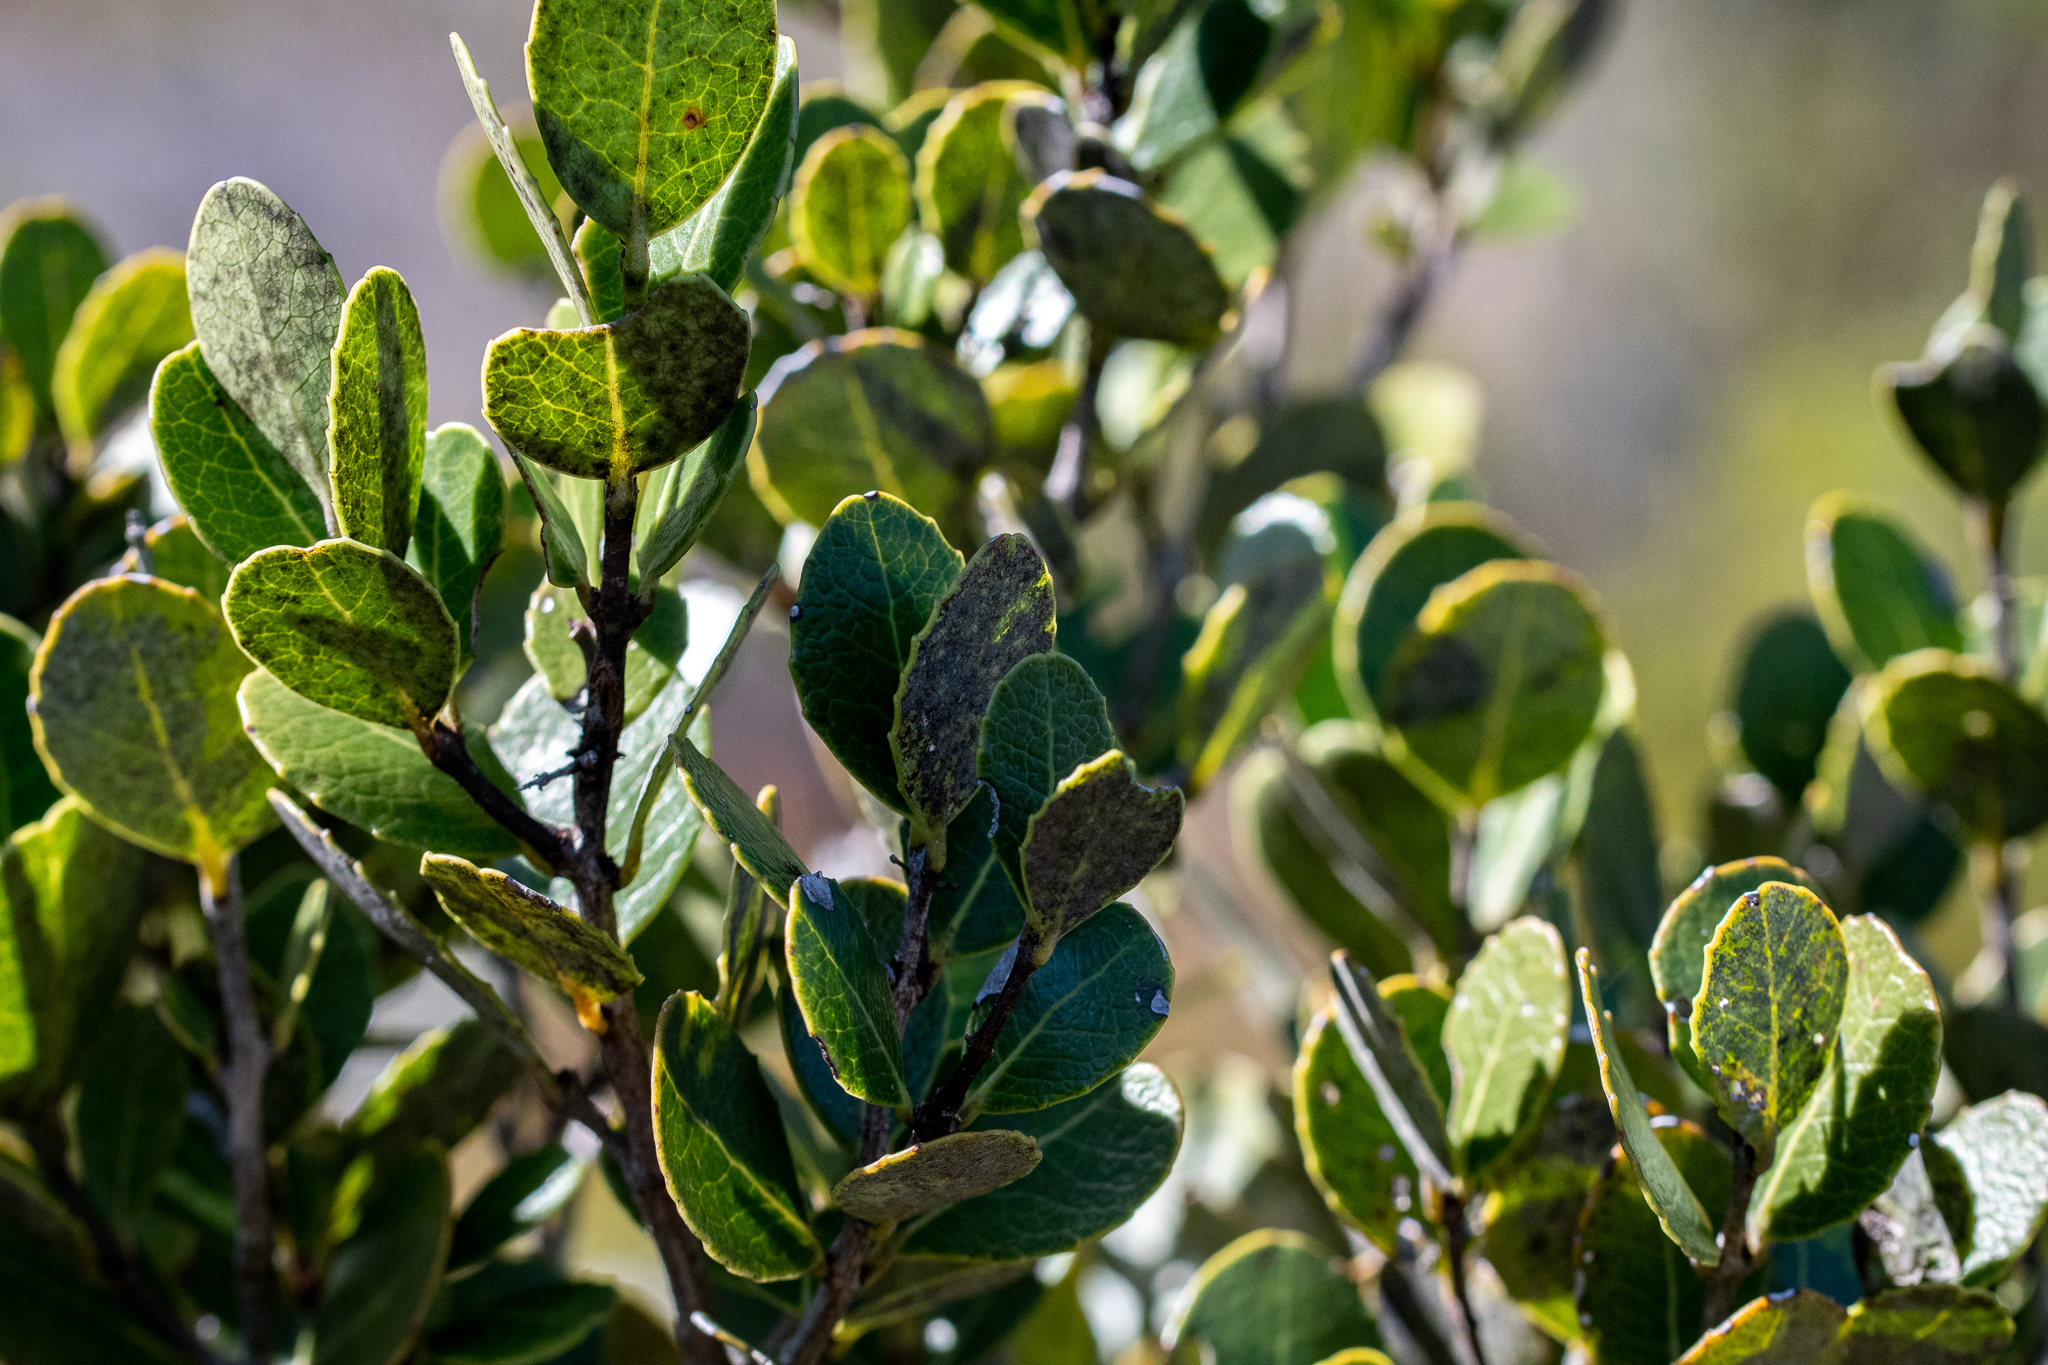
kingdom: Plantae
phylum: Tracheophyta
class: Magnoliopsida
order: Celastrales
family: Celastraceae
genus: Cassine
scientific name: Cassine peragua
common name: Cape saffron
